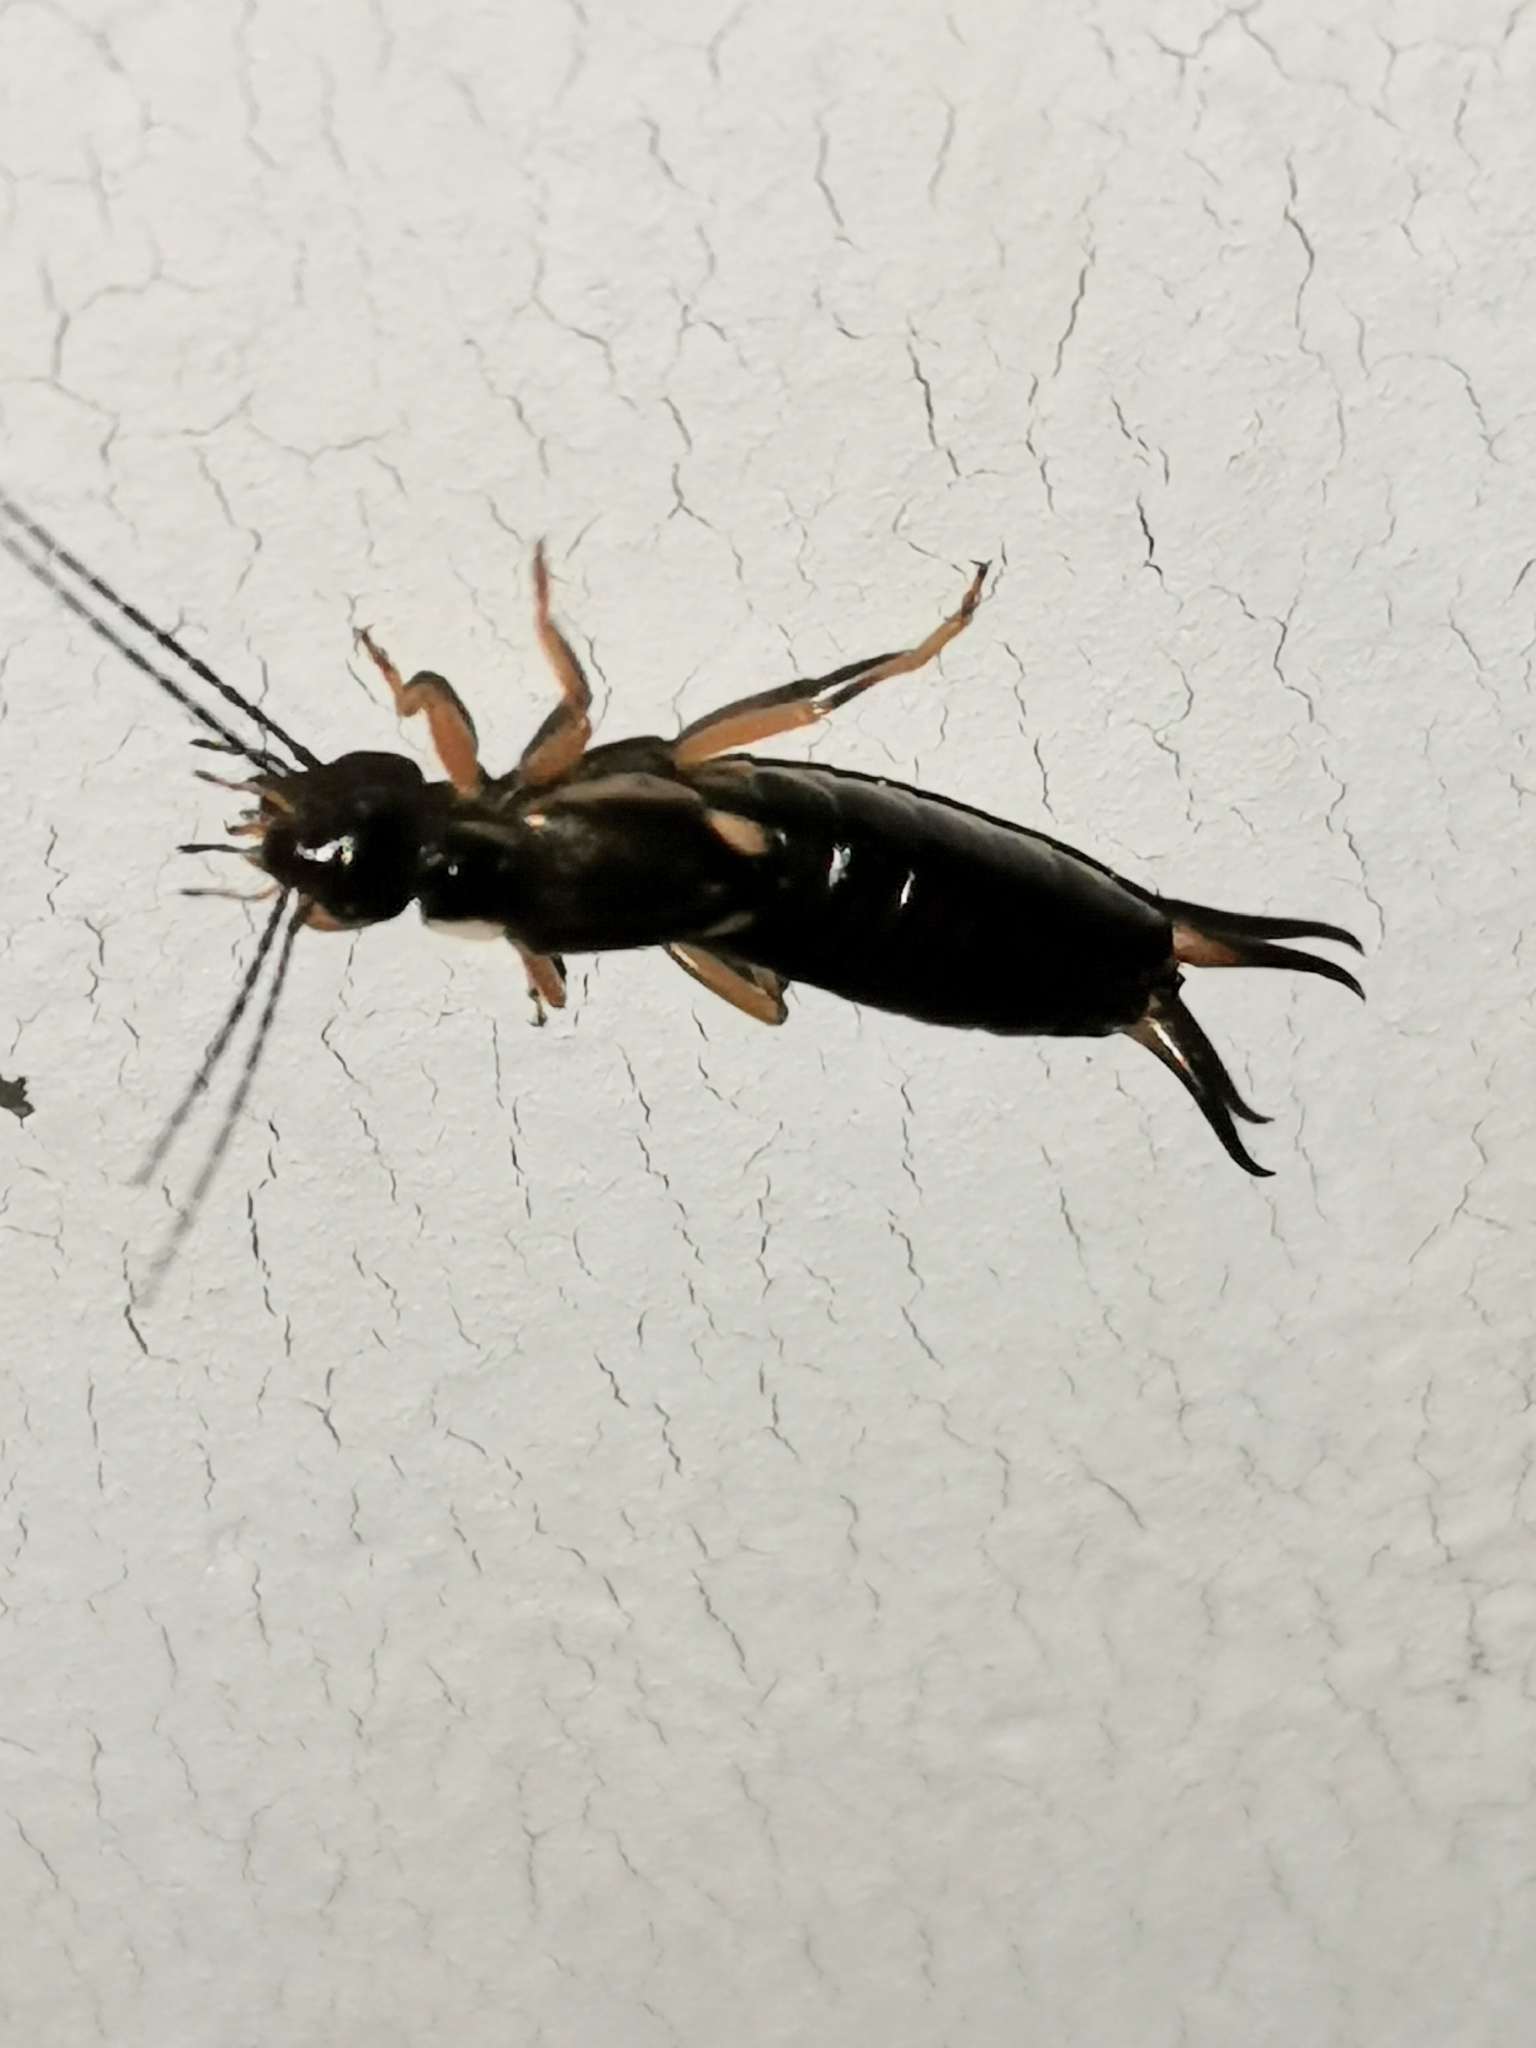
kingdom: Animalia
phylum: Arthropoda
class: Insecta
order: Dermaptera
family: Forficulidae
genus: Forficula
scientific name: Forficula
